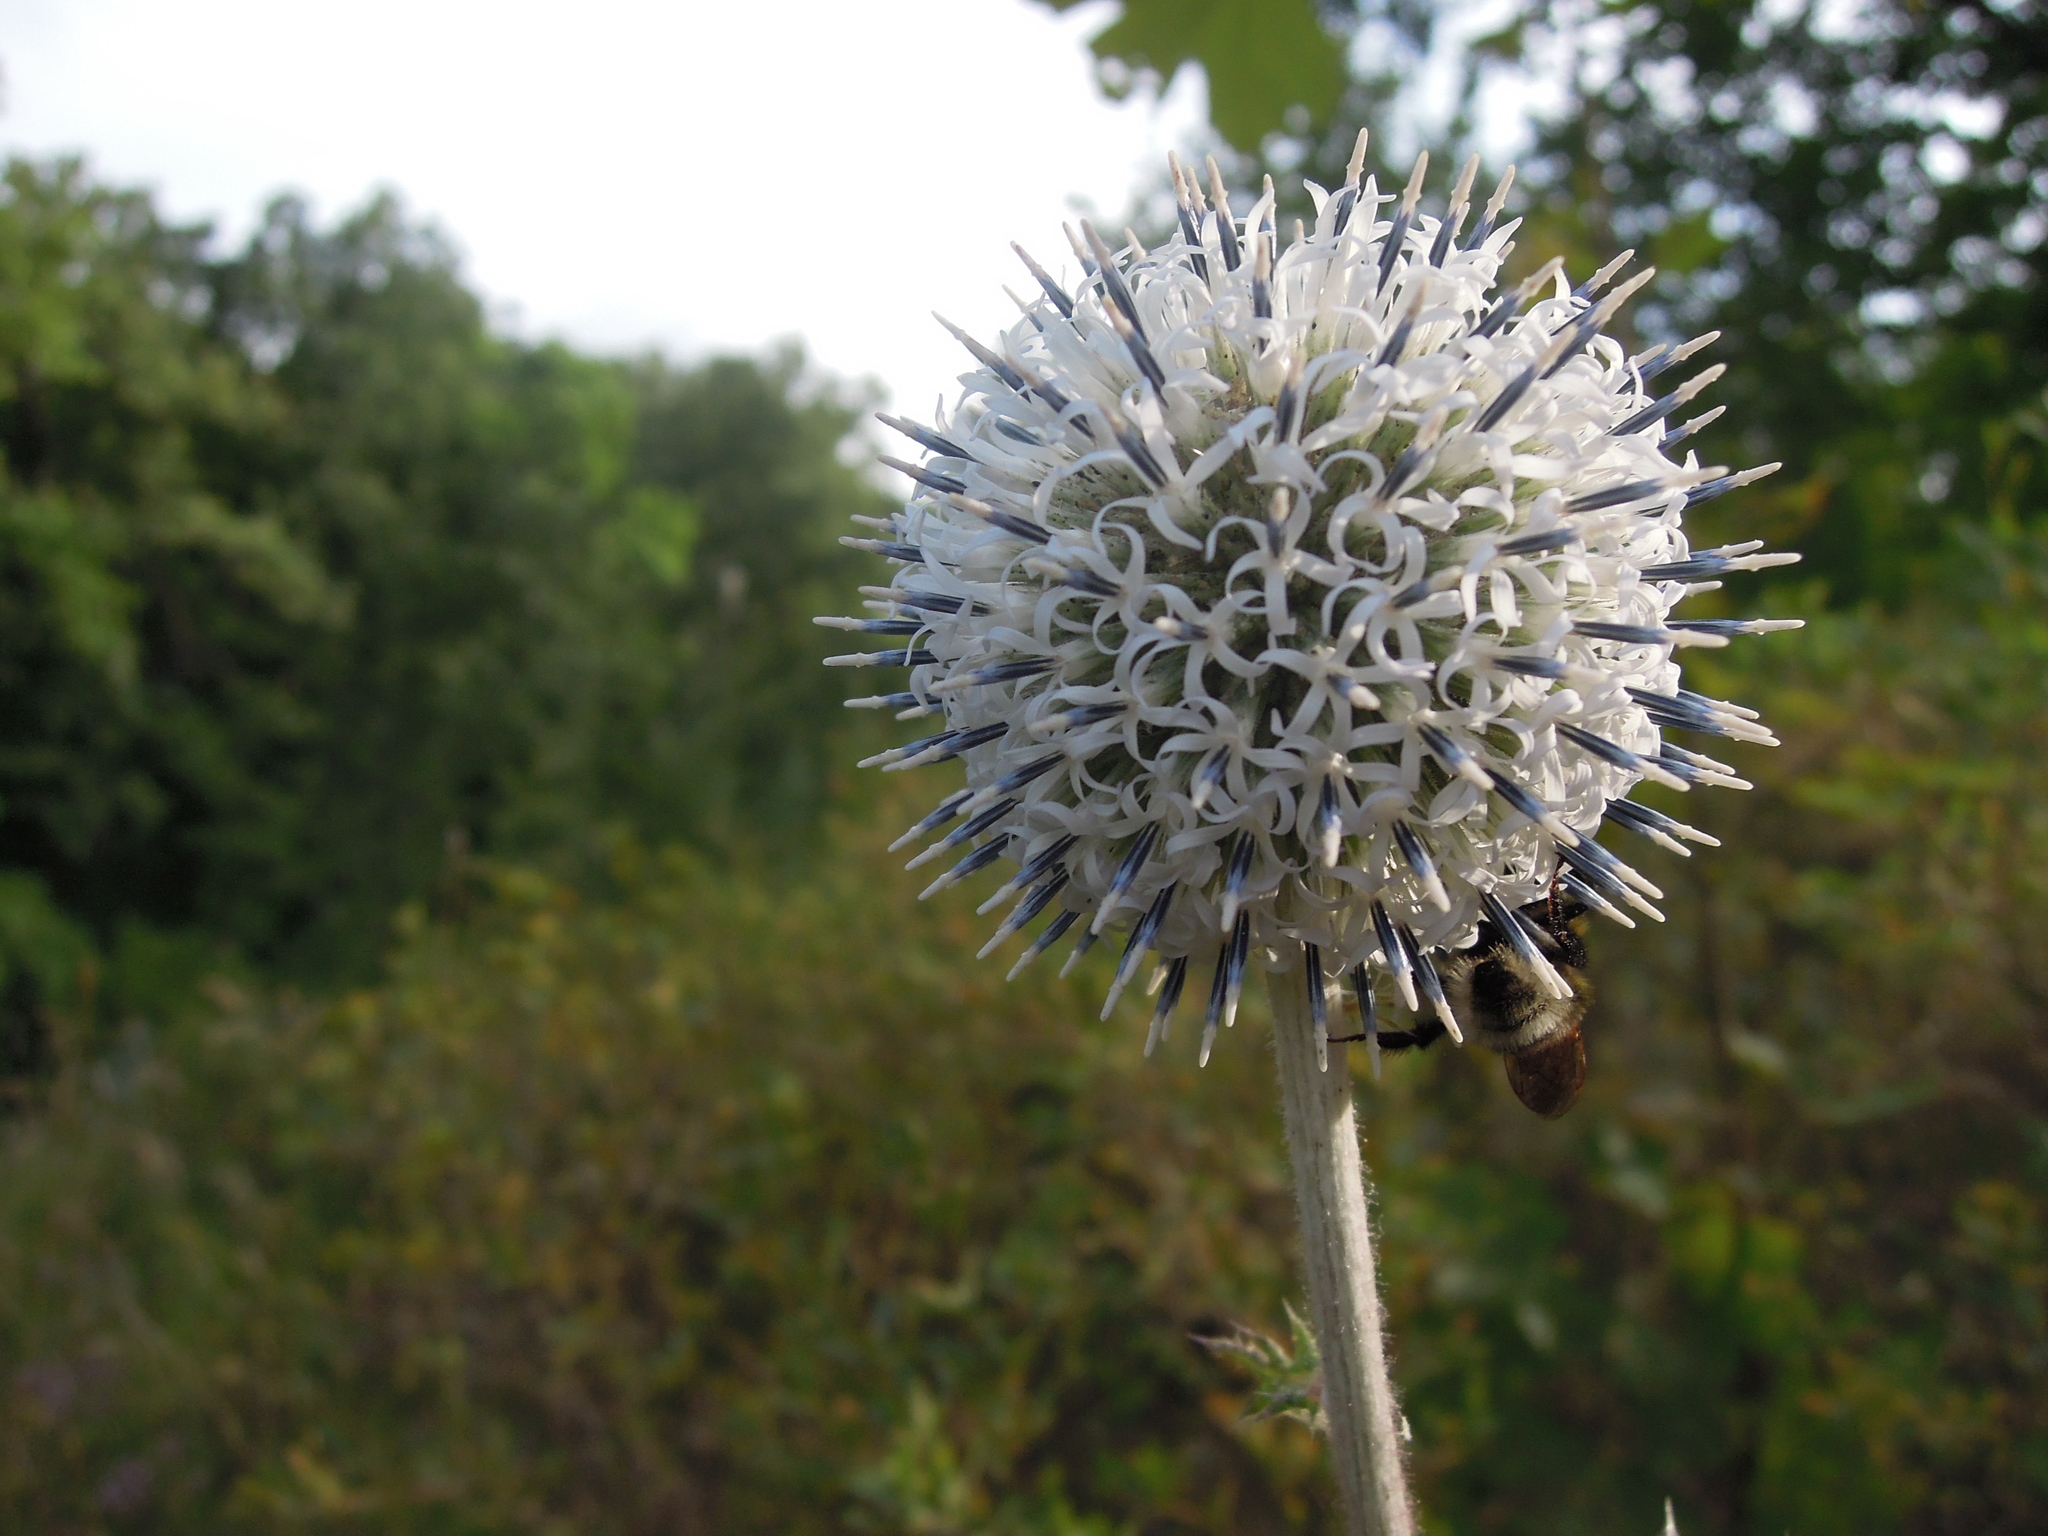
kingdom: Plantae
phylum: Tracheophyta
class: Magnoliopsida
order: Asterales
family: Asteraceae
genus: Echinops
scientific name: Echinops sphaerocephalus
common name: Glandular globe-thistle
